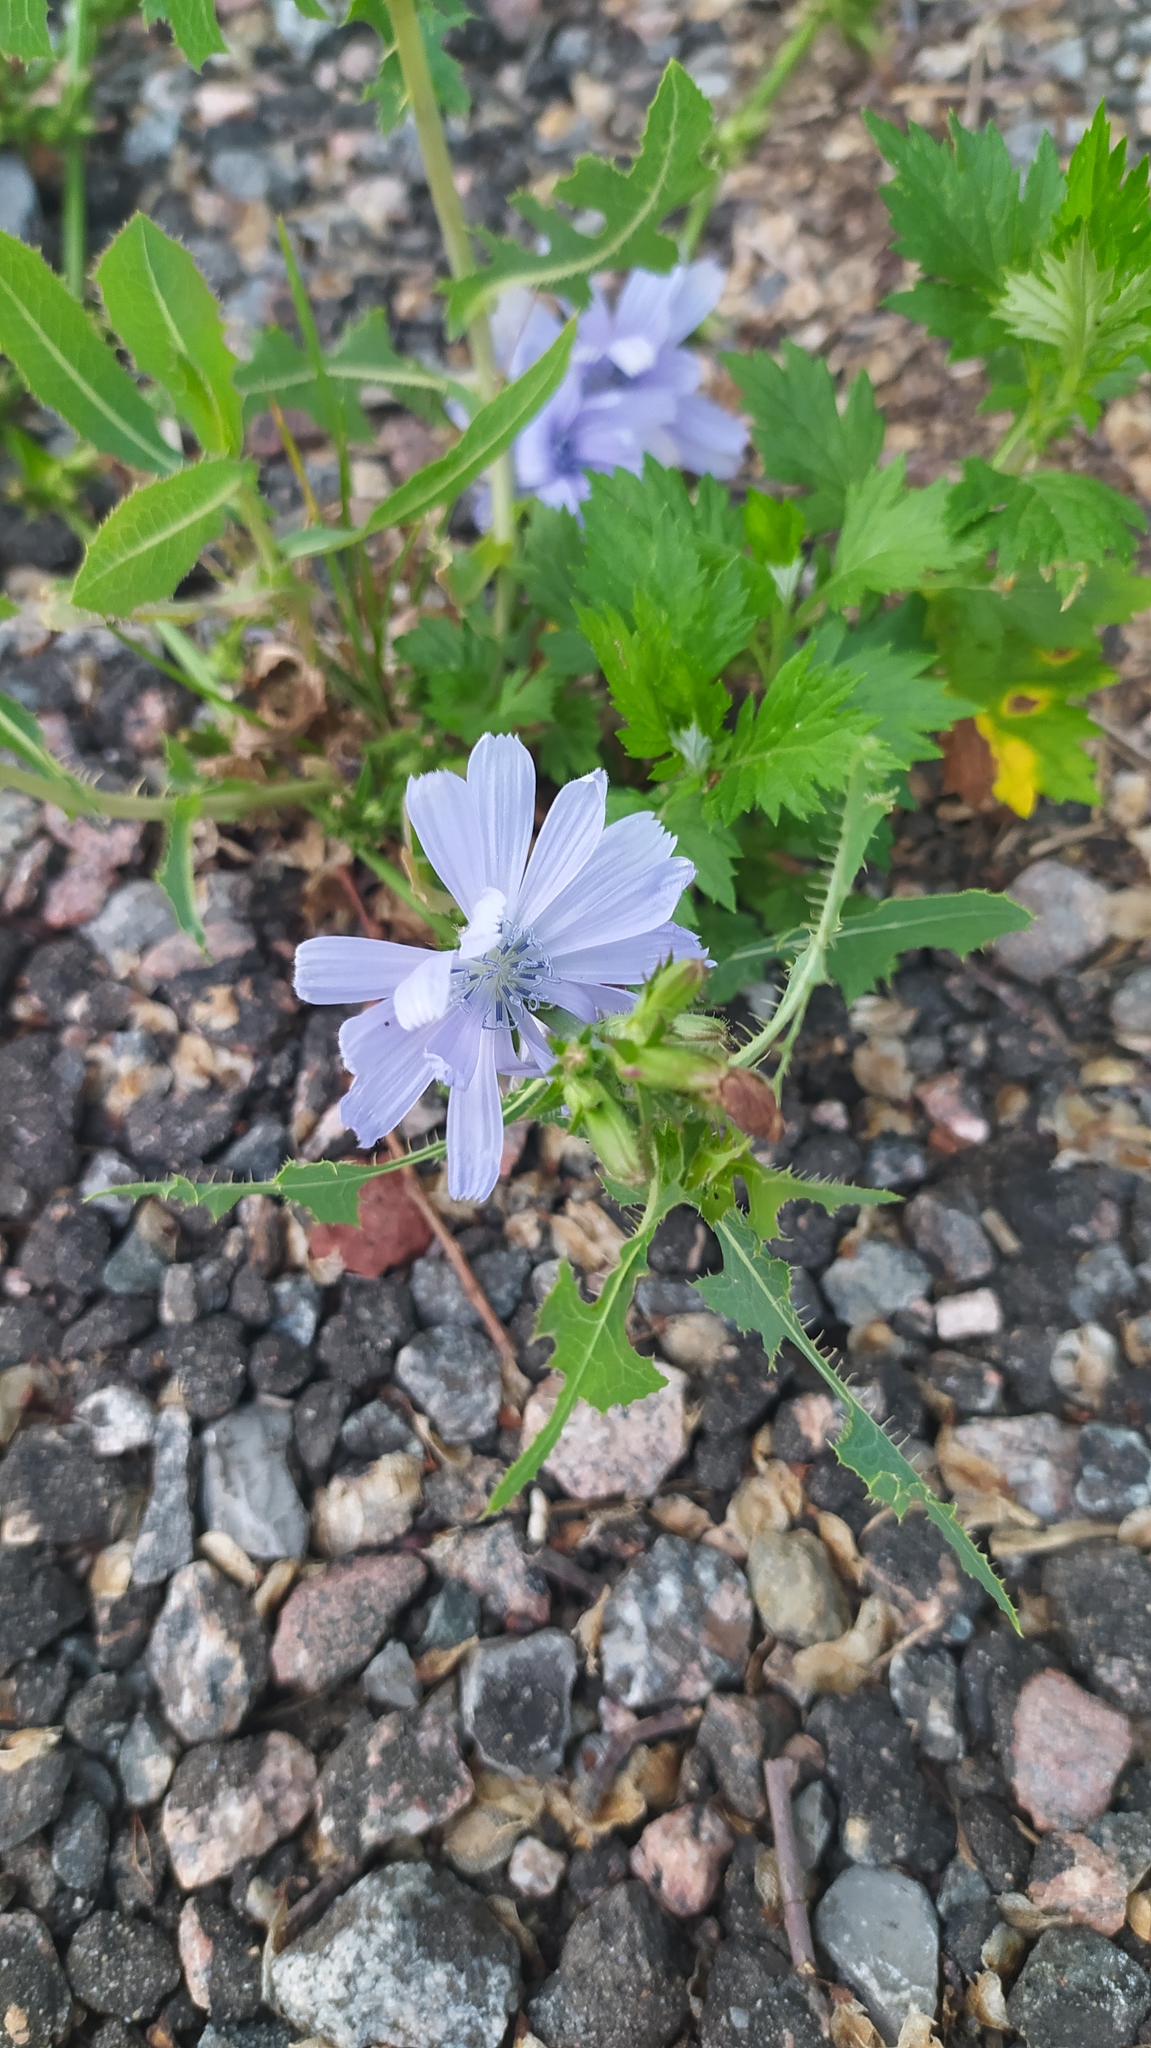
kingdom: Plantae
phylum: Tracheophyta
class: Magnoliopsida
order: Asterales
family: Asteraceae
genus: Cichorium
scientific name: Cichorium intybus
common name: Chicory
